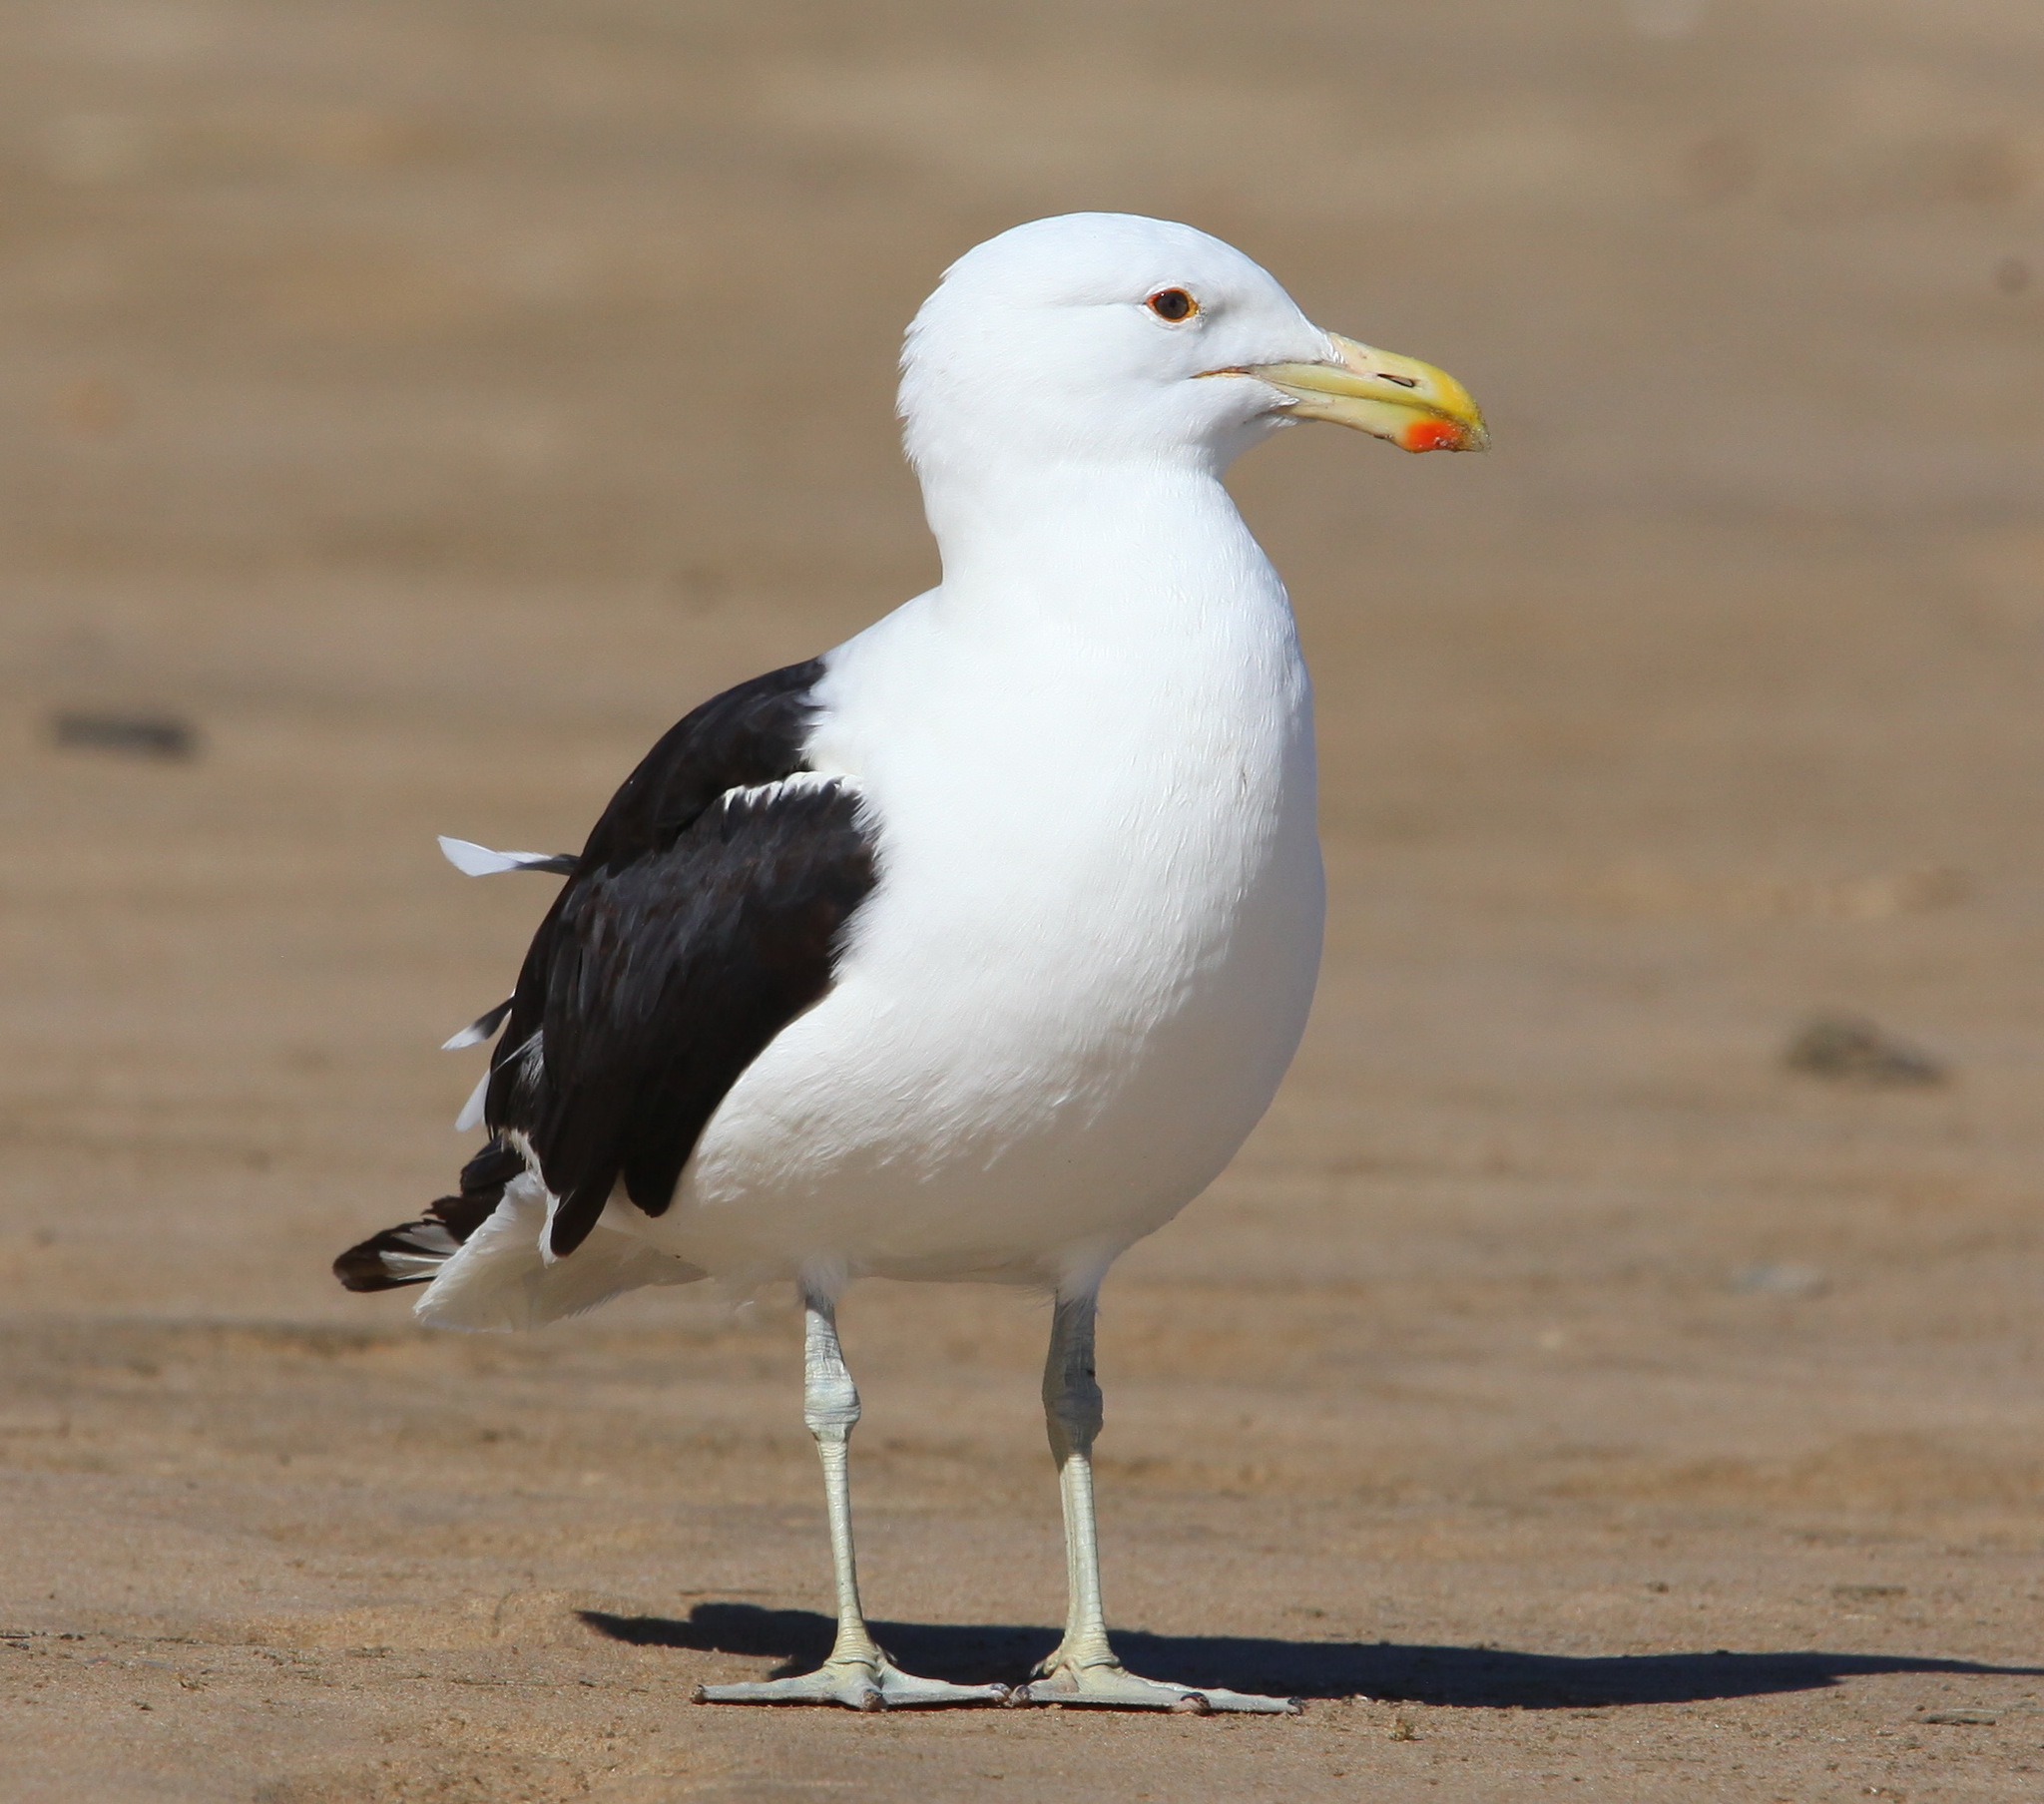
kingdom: Animalia
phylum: Chordata
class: Aves
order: Charadriiformes
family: Laridae
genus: Larus
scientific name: Larus dominicanus
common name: Kelp gull
